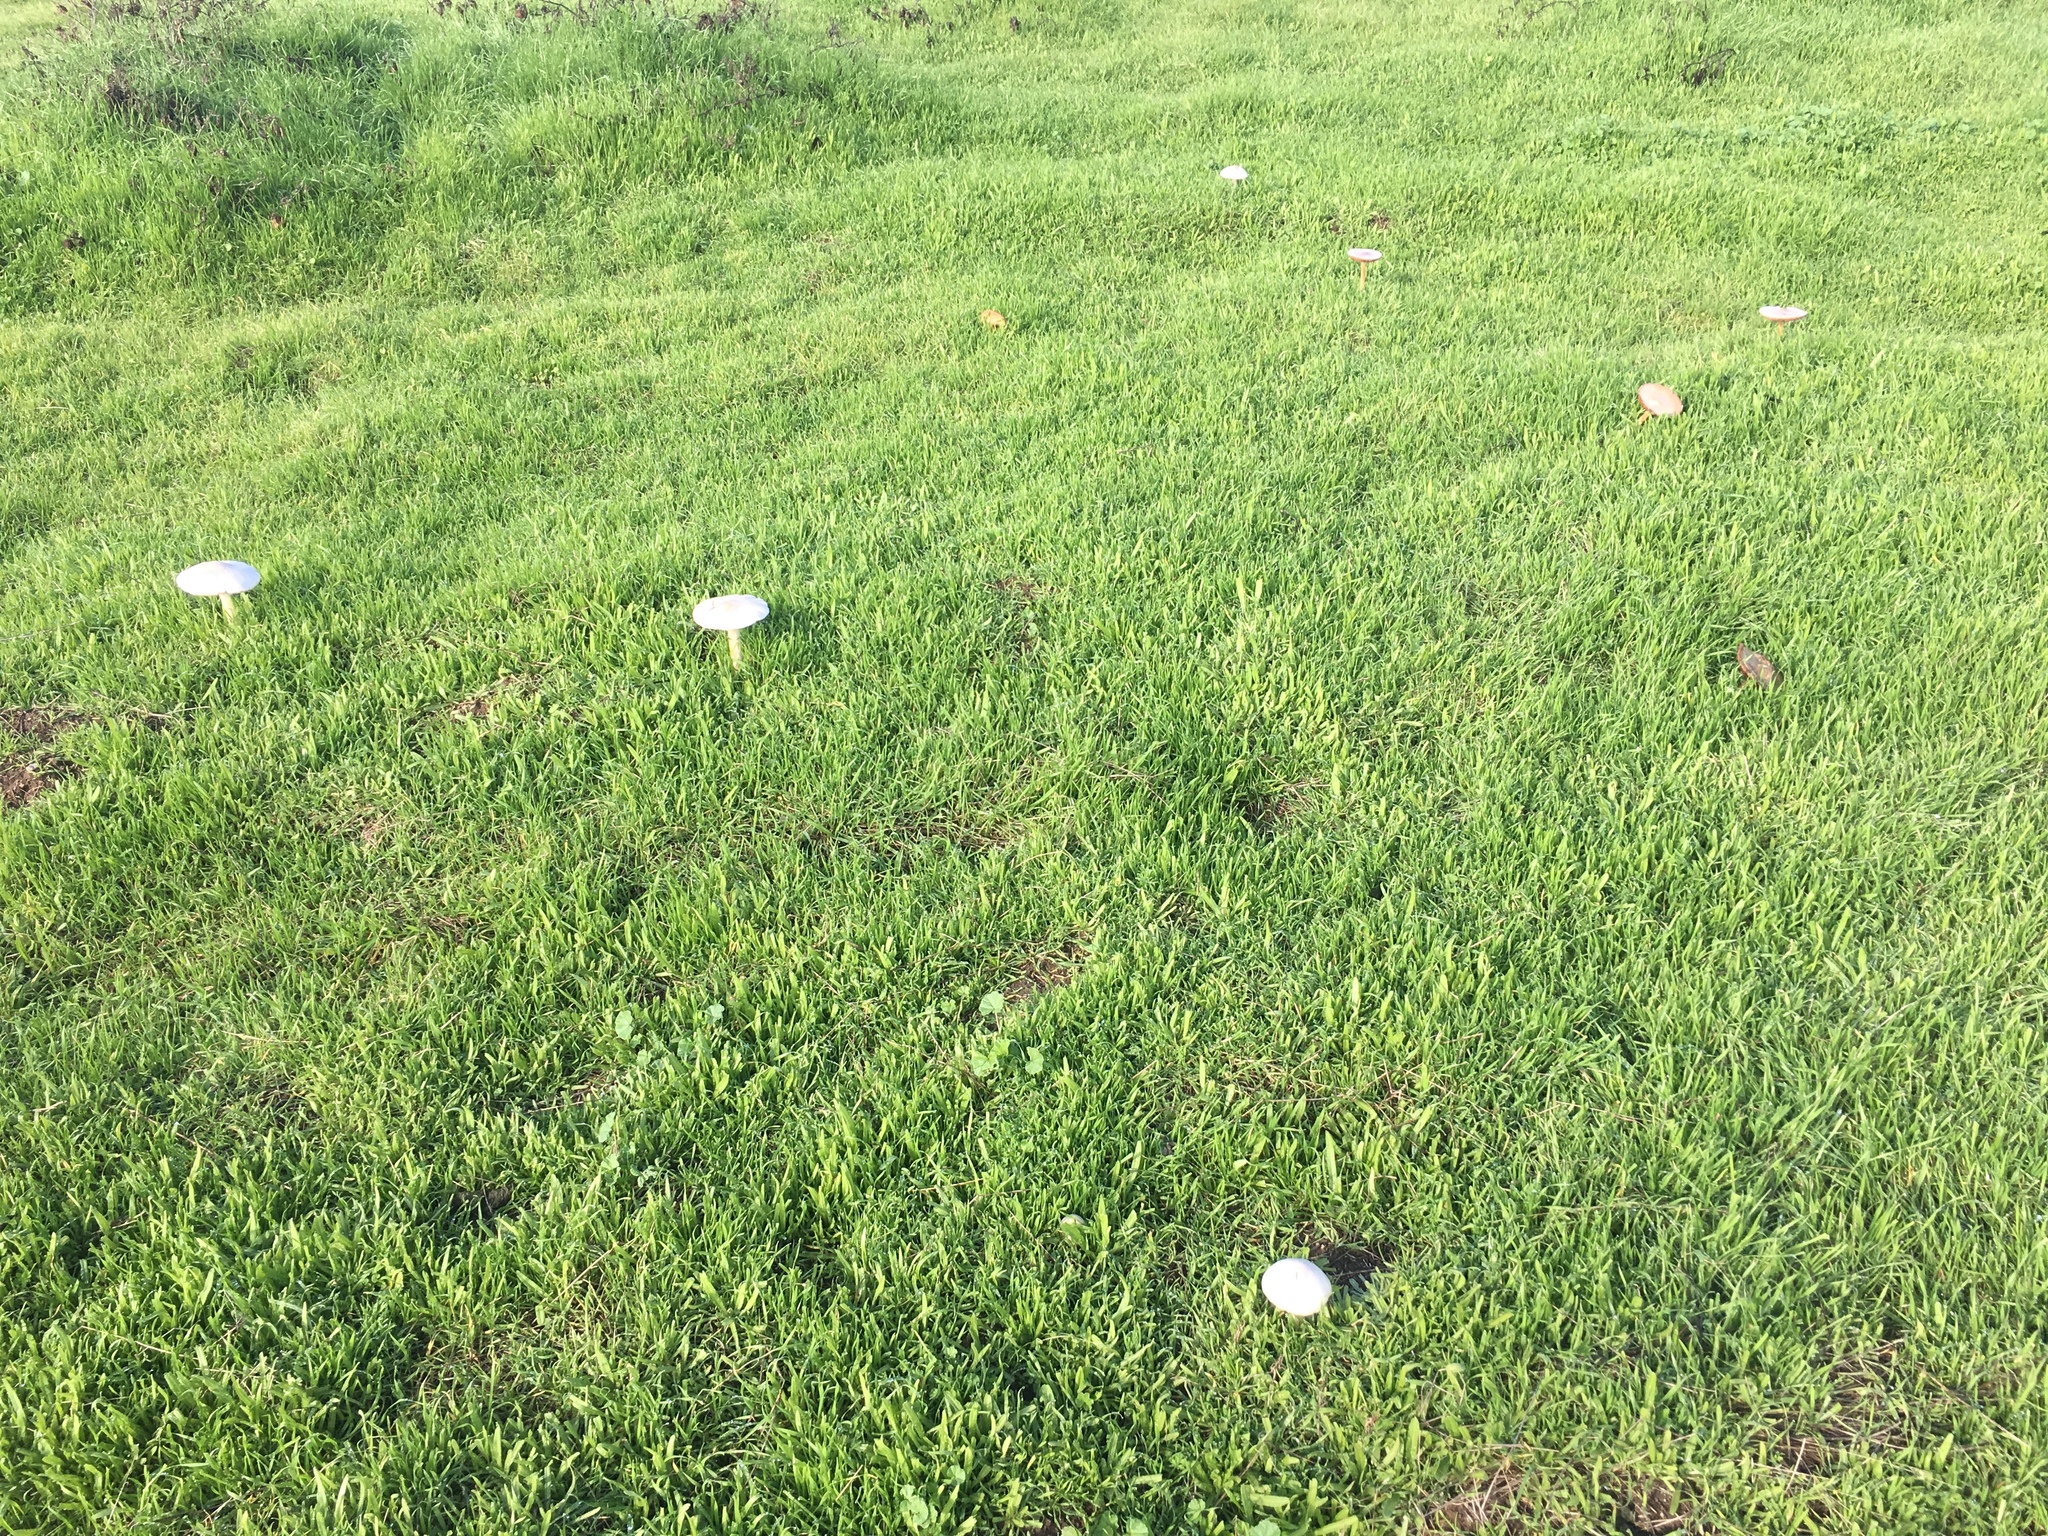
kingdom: Fungi
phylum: Basidiomycota
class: Agaricomycetes
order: Agaricales
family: Pluteaceae
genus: Volvopluteus
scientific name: Volvopluteus gloiocephalus
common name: Stubble rosegill
